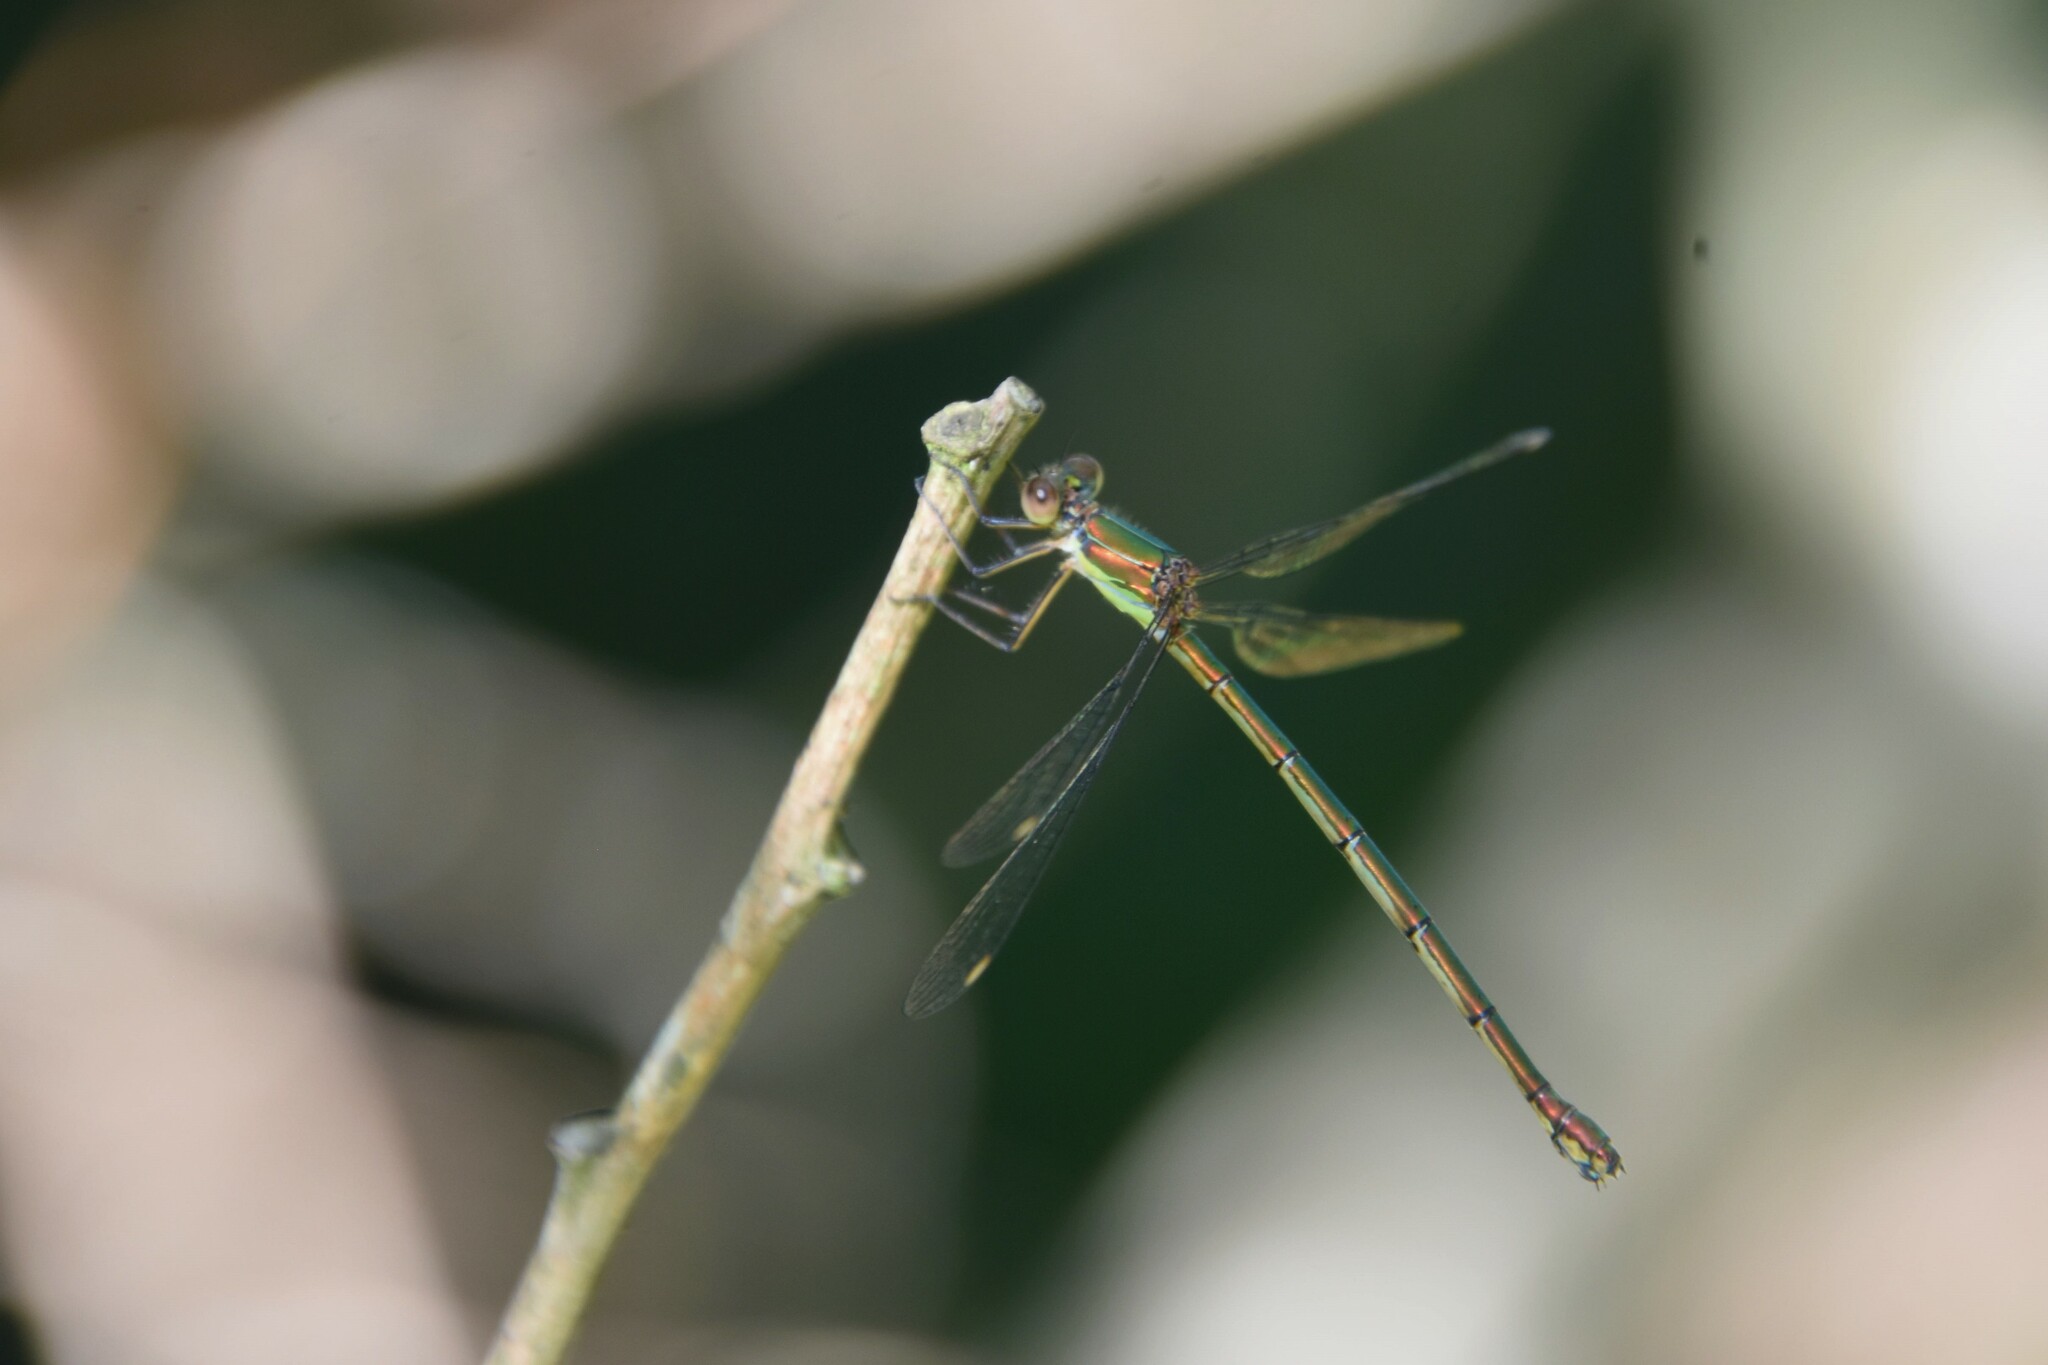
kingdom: Animalia
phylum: Arthropoda
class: Insecta
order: Odonata
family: Lestidae
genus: Chalcolestes
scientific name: Chalcolestes viridis
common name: Green emerald damselfly
